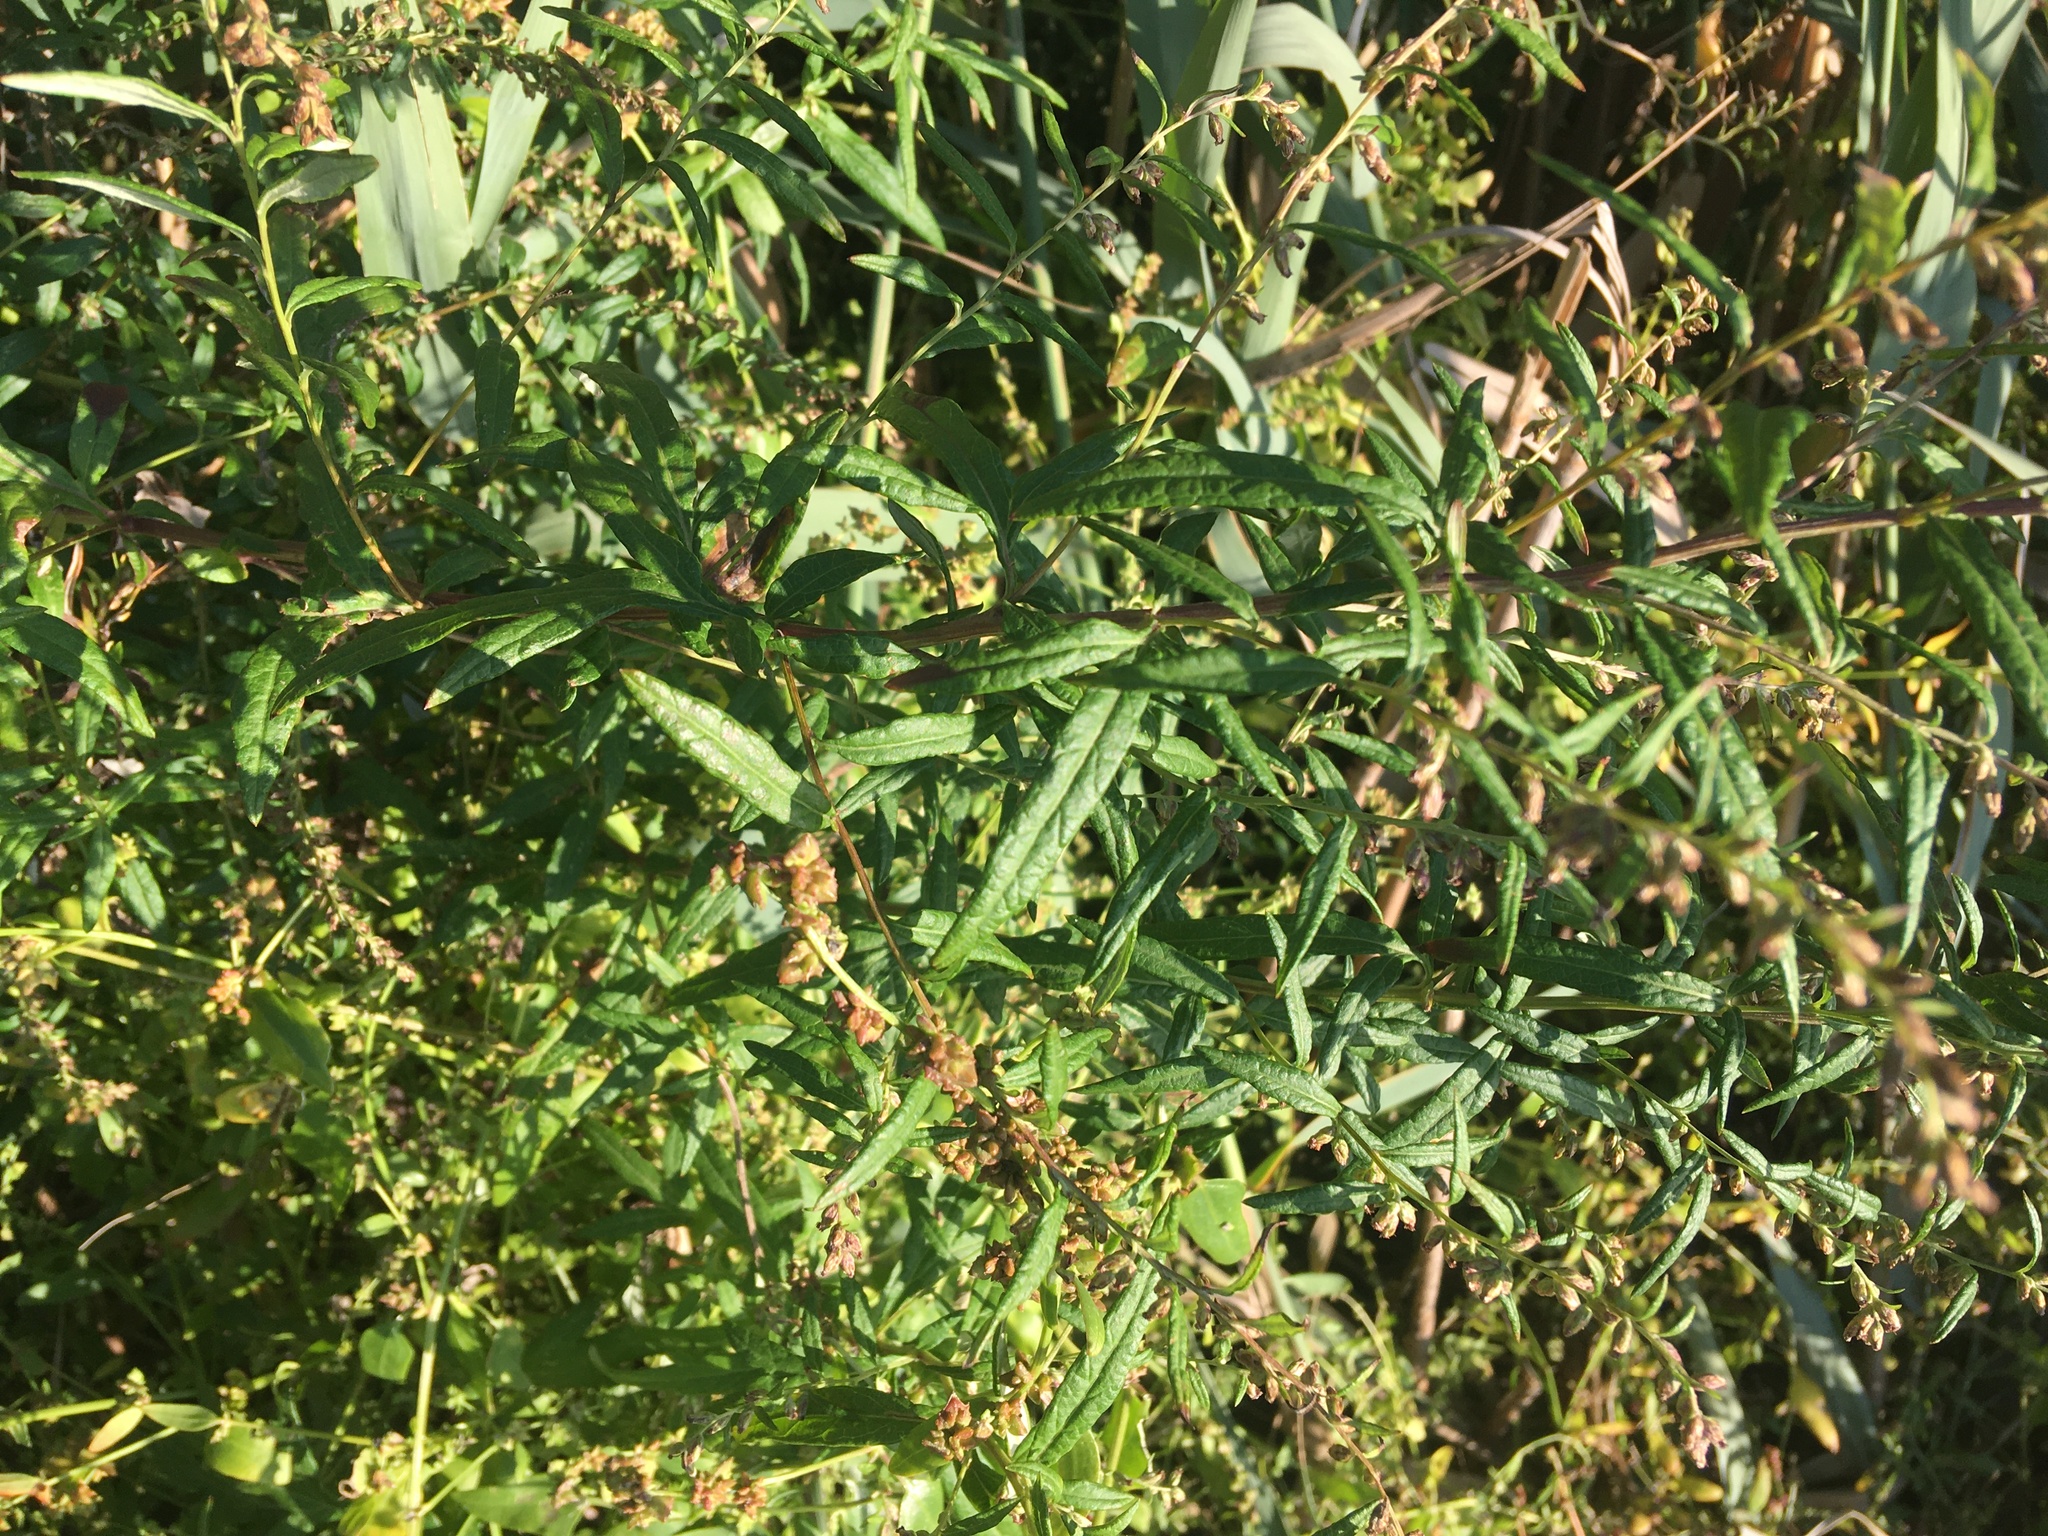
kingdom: Plantae
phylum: Tracheophyta
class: Magnoliopsida
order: Asterales
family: Asteraceae
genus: Artemisia
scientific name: Artemisia vulgaris
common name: Mugwort
